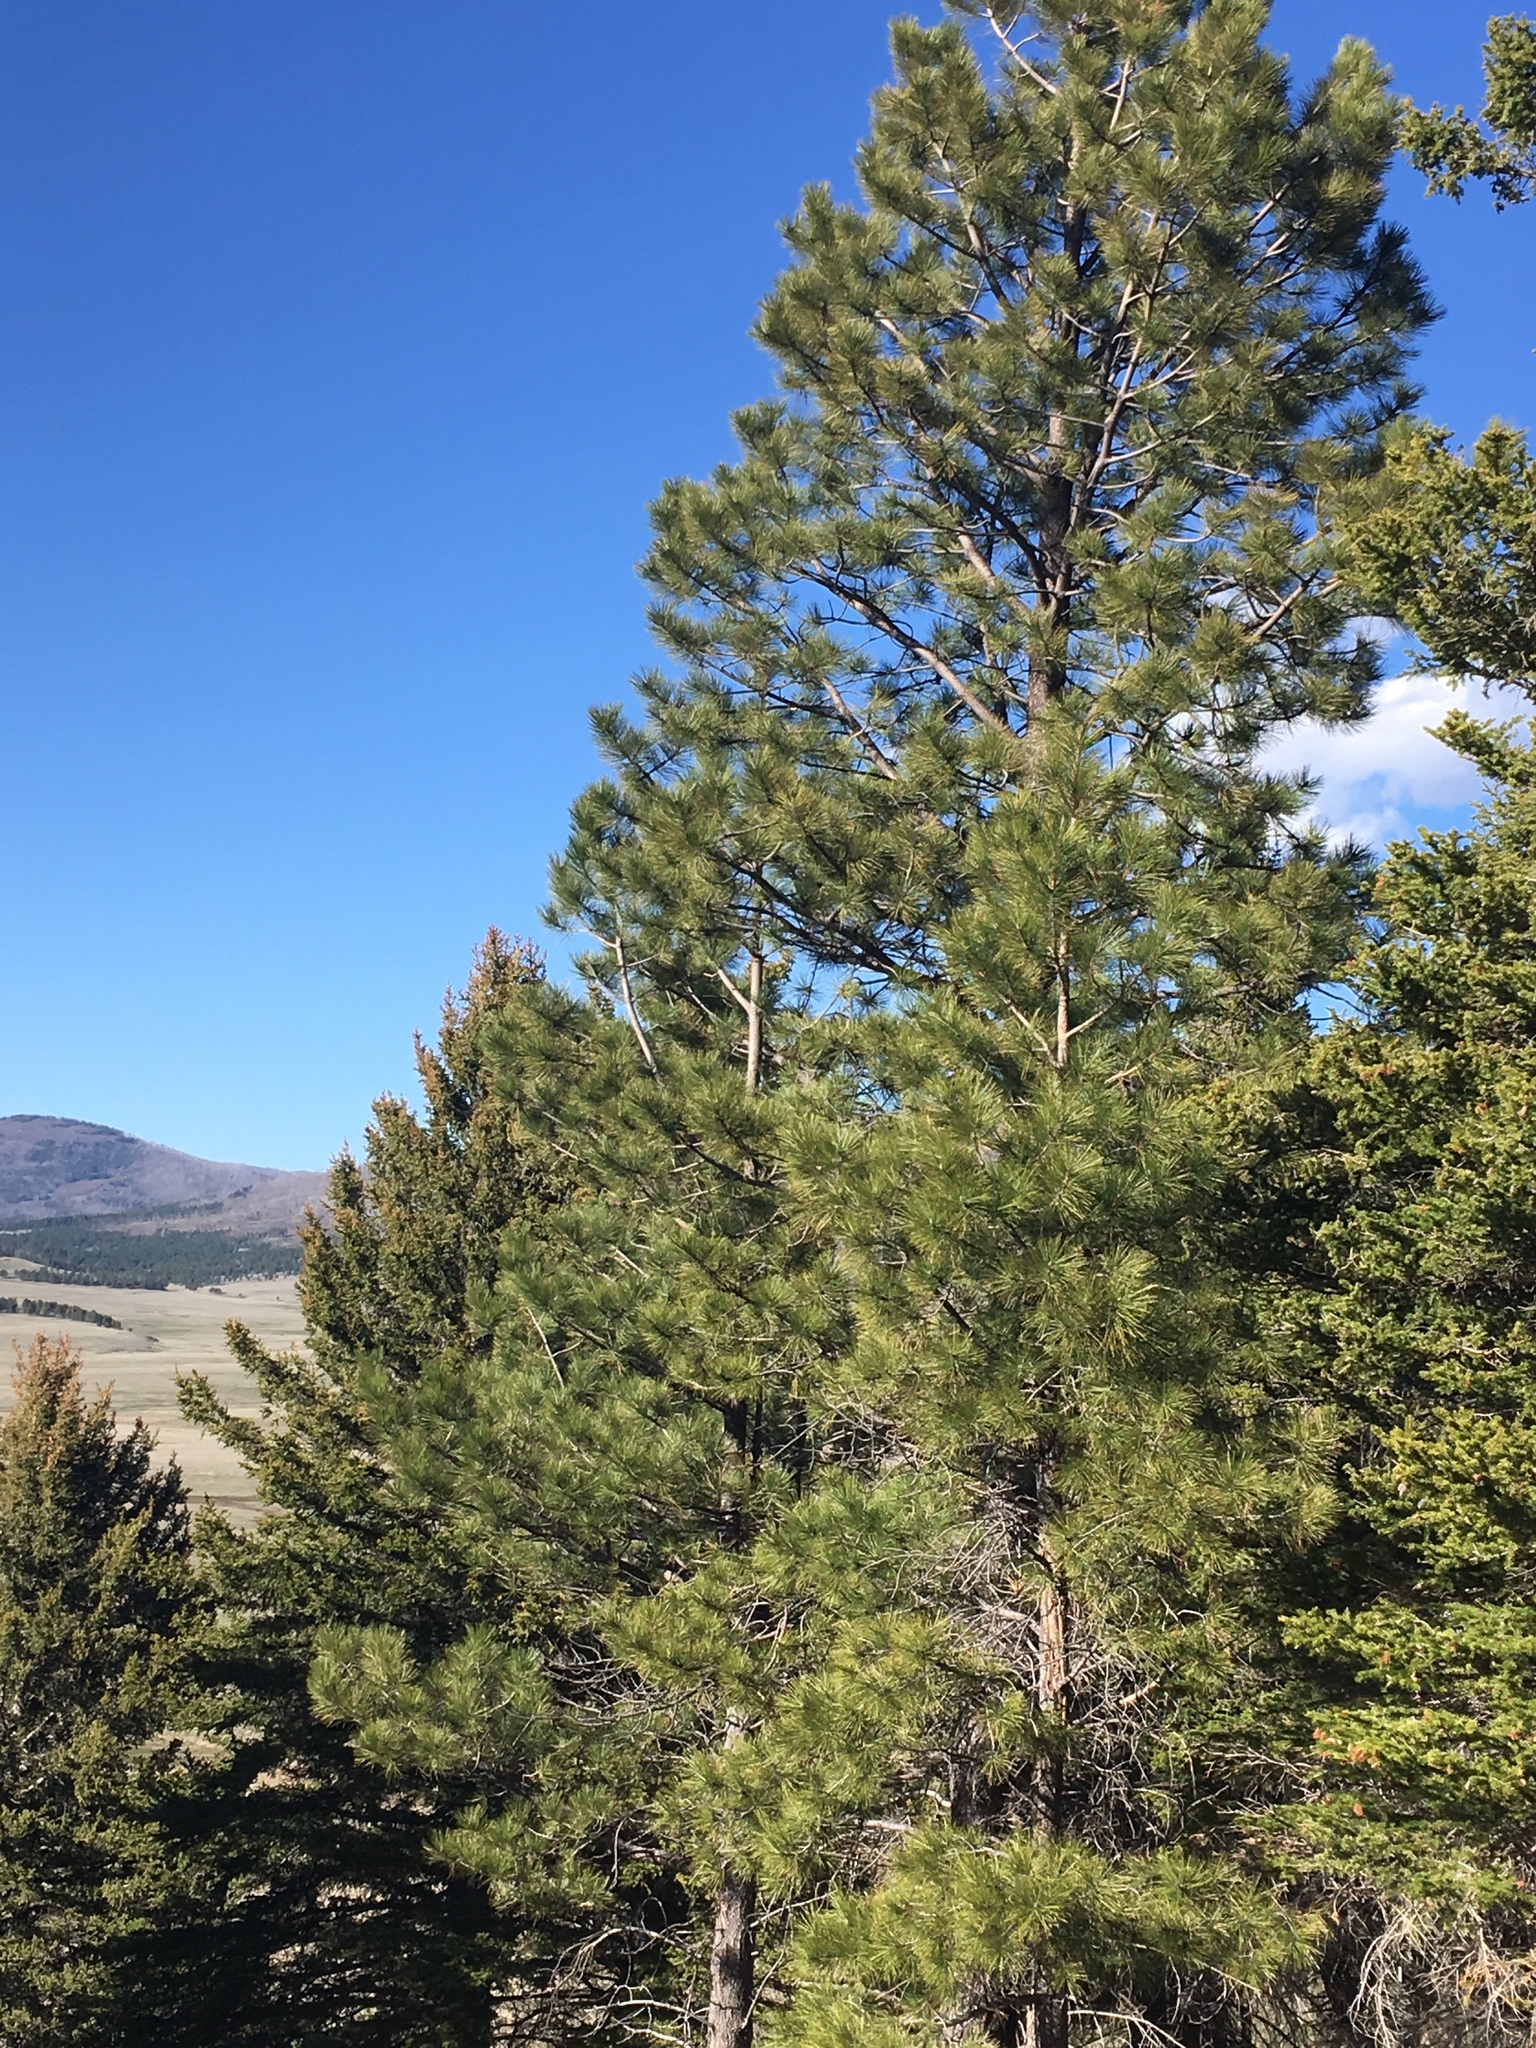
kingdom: Plantae
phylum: Tracheophyta
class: Pinopsida
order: Pinales
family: Pinaceae
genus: Pinus
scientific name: Pinus ponderosa
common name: Western yellow-pine
